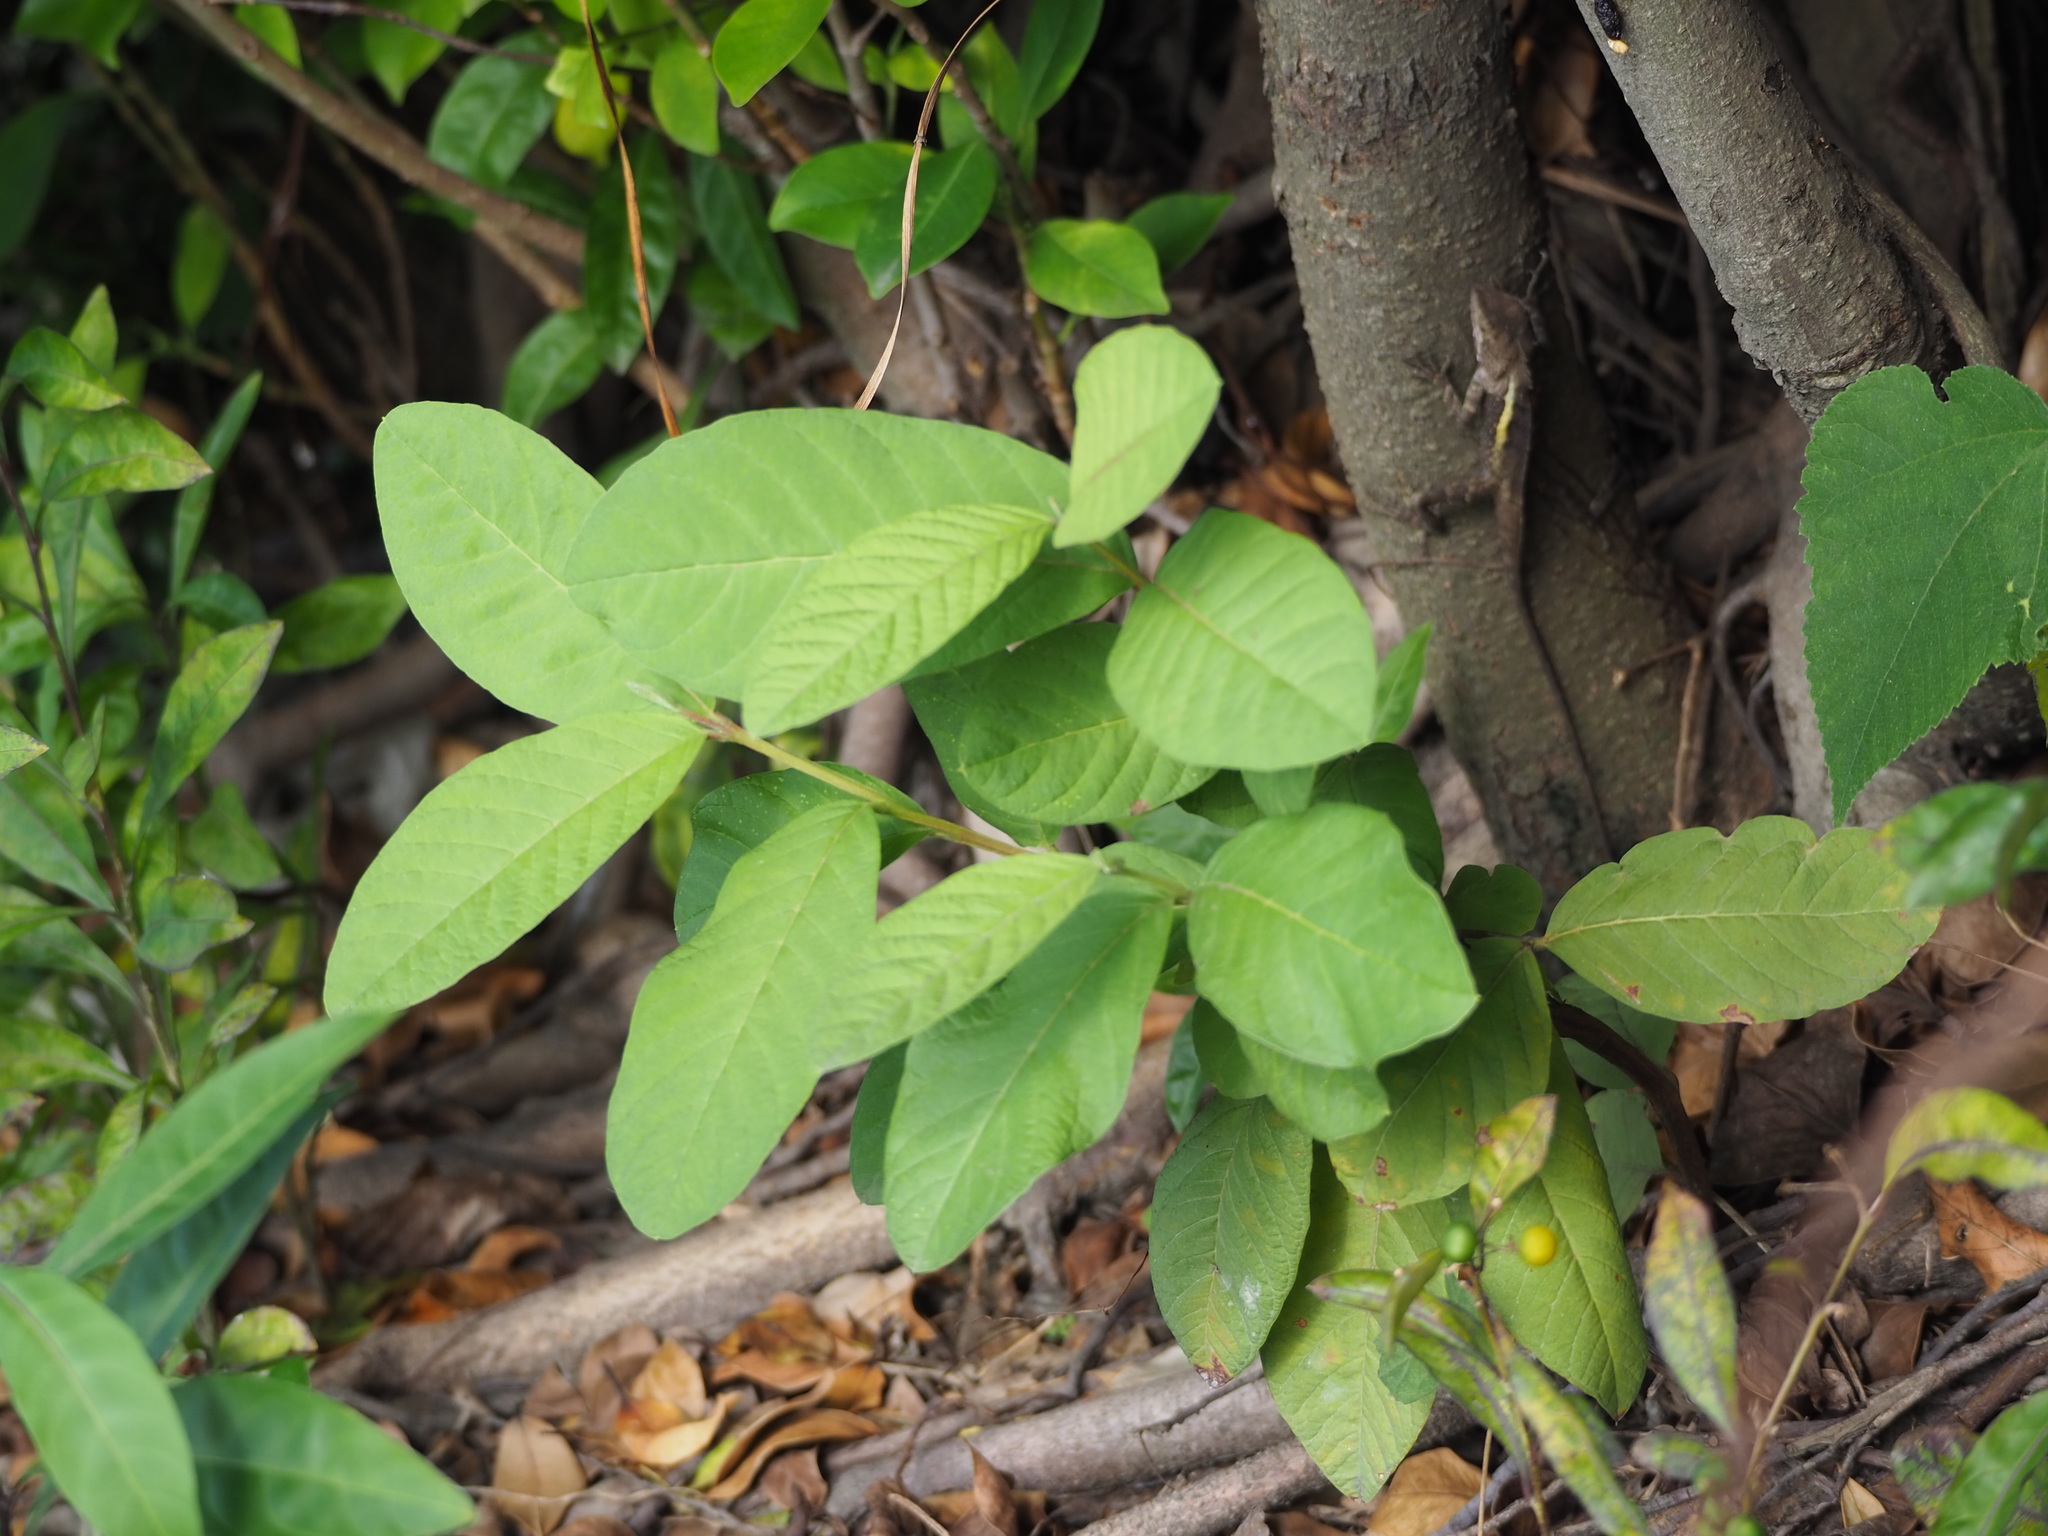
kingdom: Plantae
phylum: Tracheophyta
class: Magnoliopsida
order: Myrtales
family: Myrtaceae
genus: Psidium
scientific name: Psidium guajava
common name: Guava
